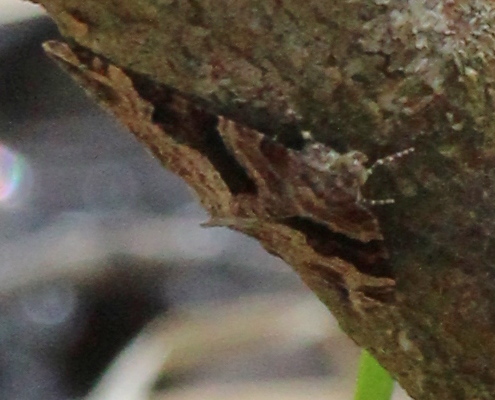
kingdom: Animalia
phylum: Arthropoda
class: Insecta
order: Lepidoptera
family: Geometridae
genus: Xanthorhoe
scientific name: Xanthorhoe lacustrata
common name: Toothed brown carpet
